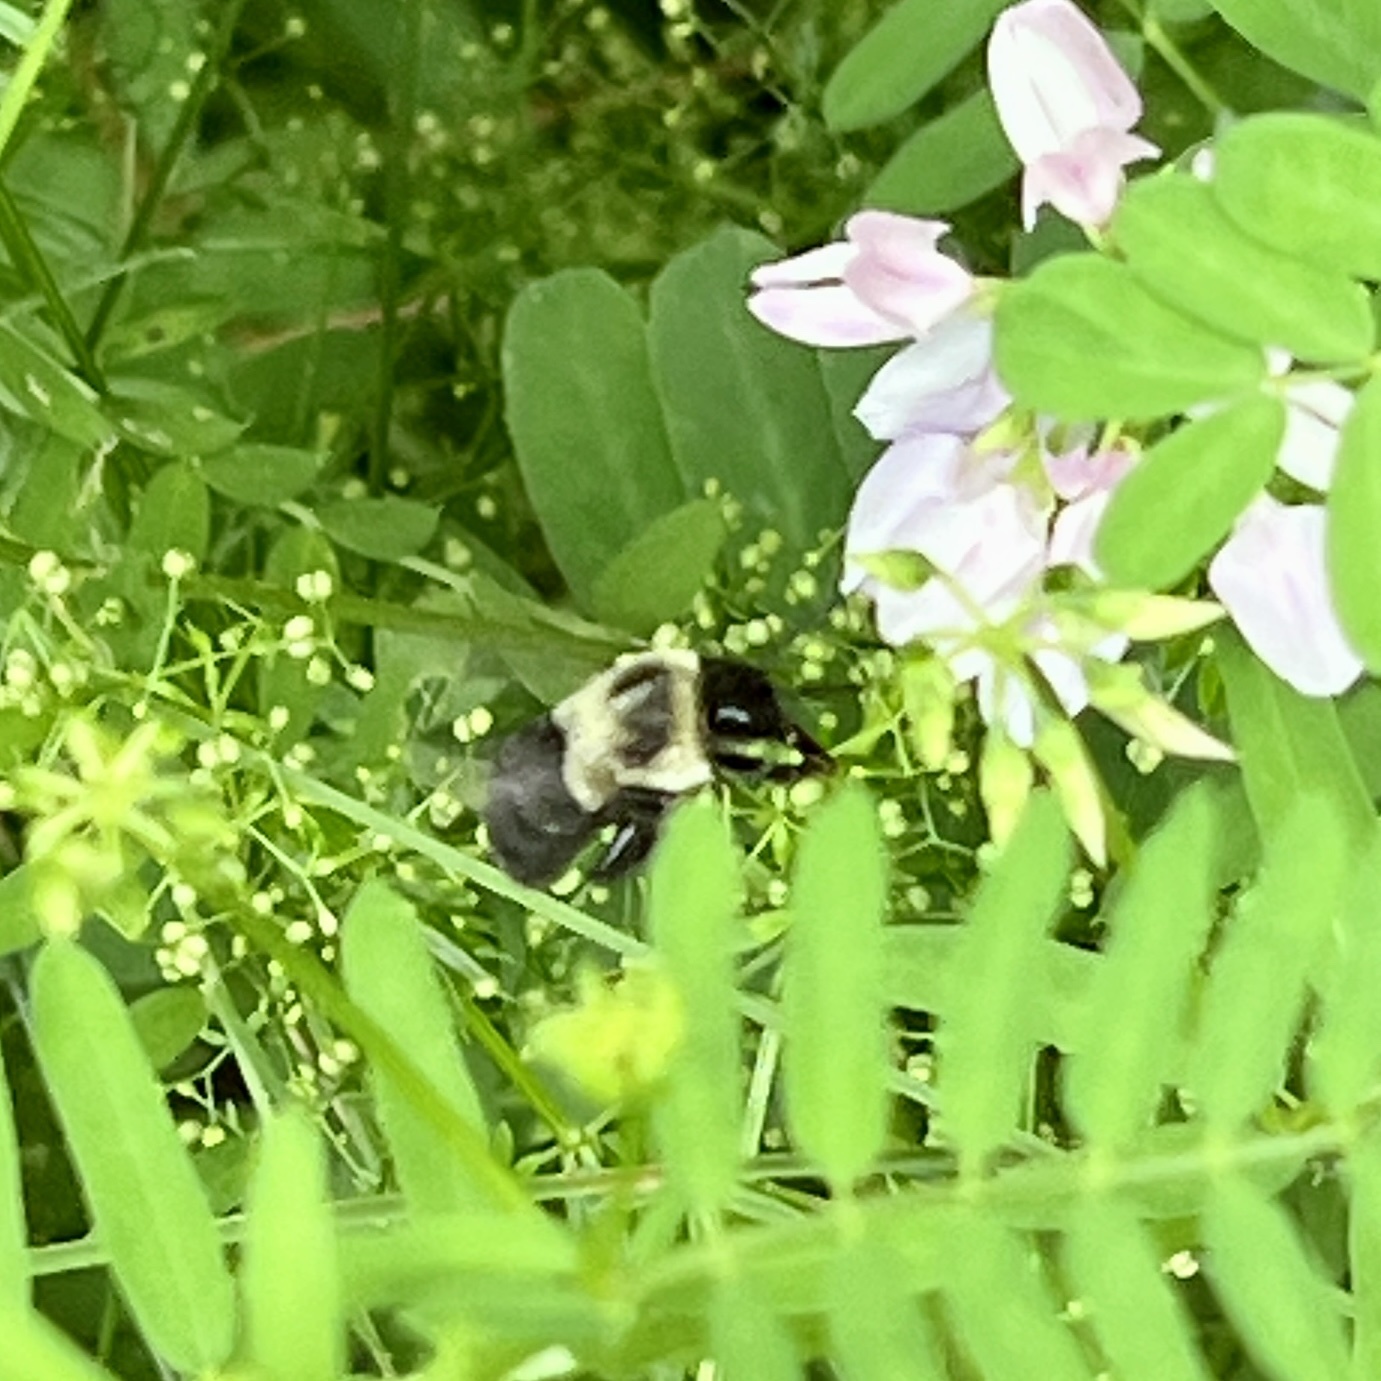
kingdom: Animalia
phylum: Arthropoda
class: Insecta
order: Hymenoptera
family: Apidae
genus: Bombus
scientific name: Bombus impatiens
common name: Common eastern bumble bee
